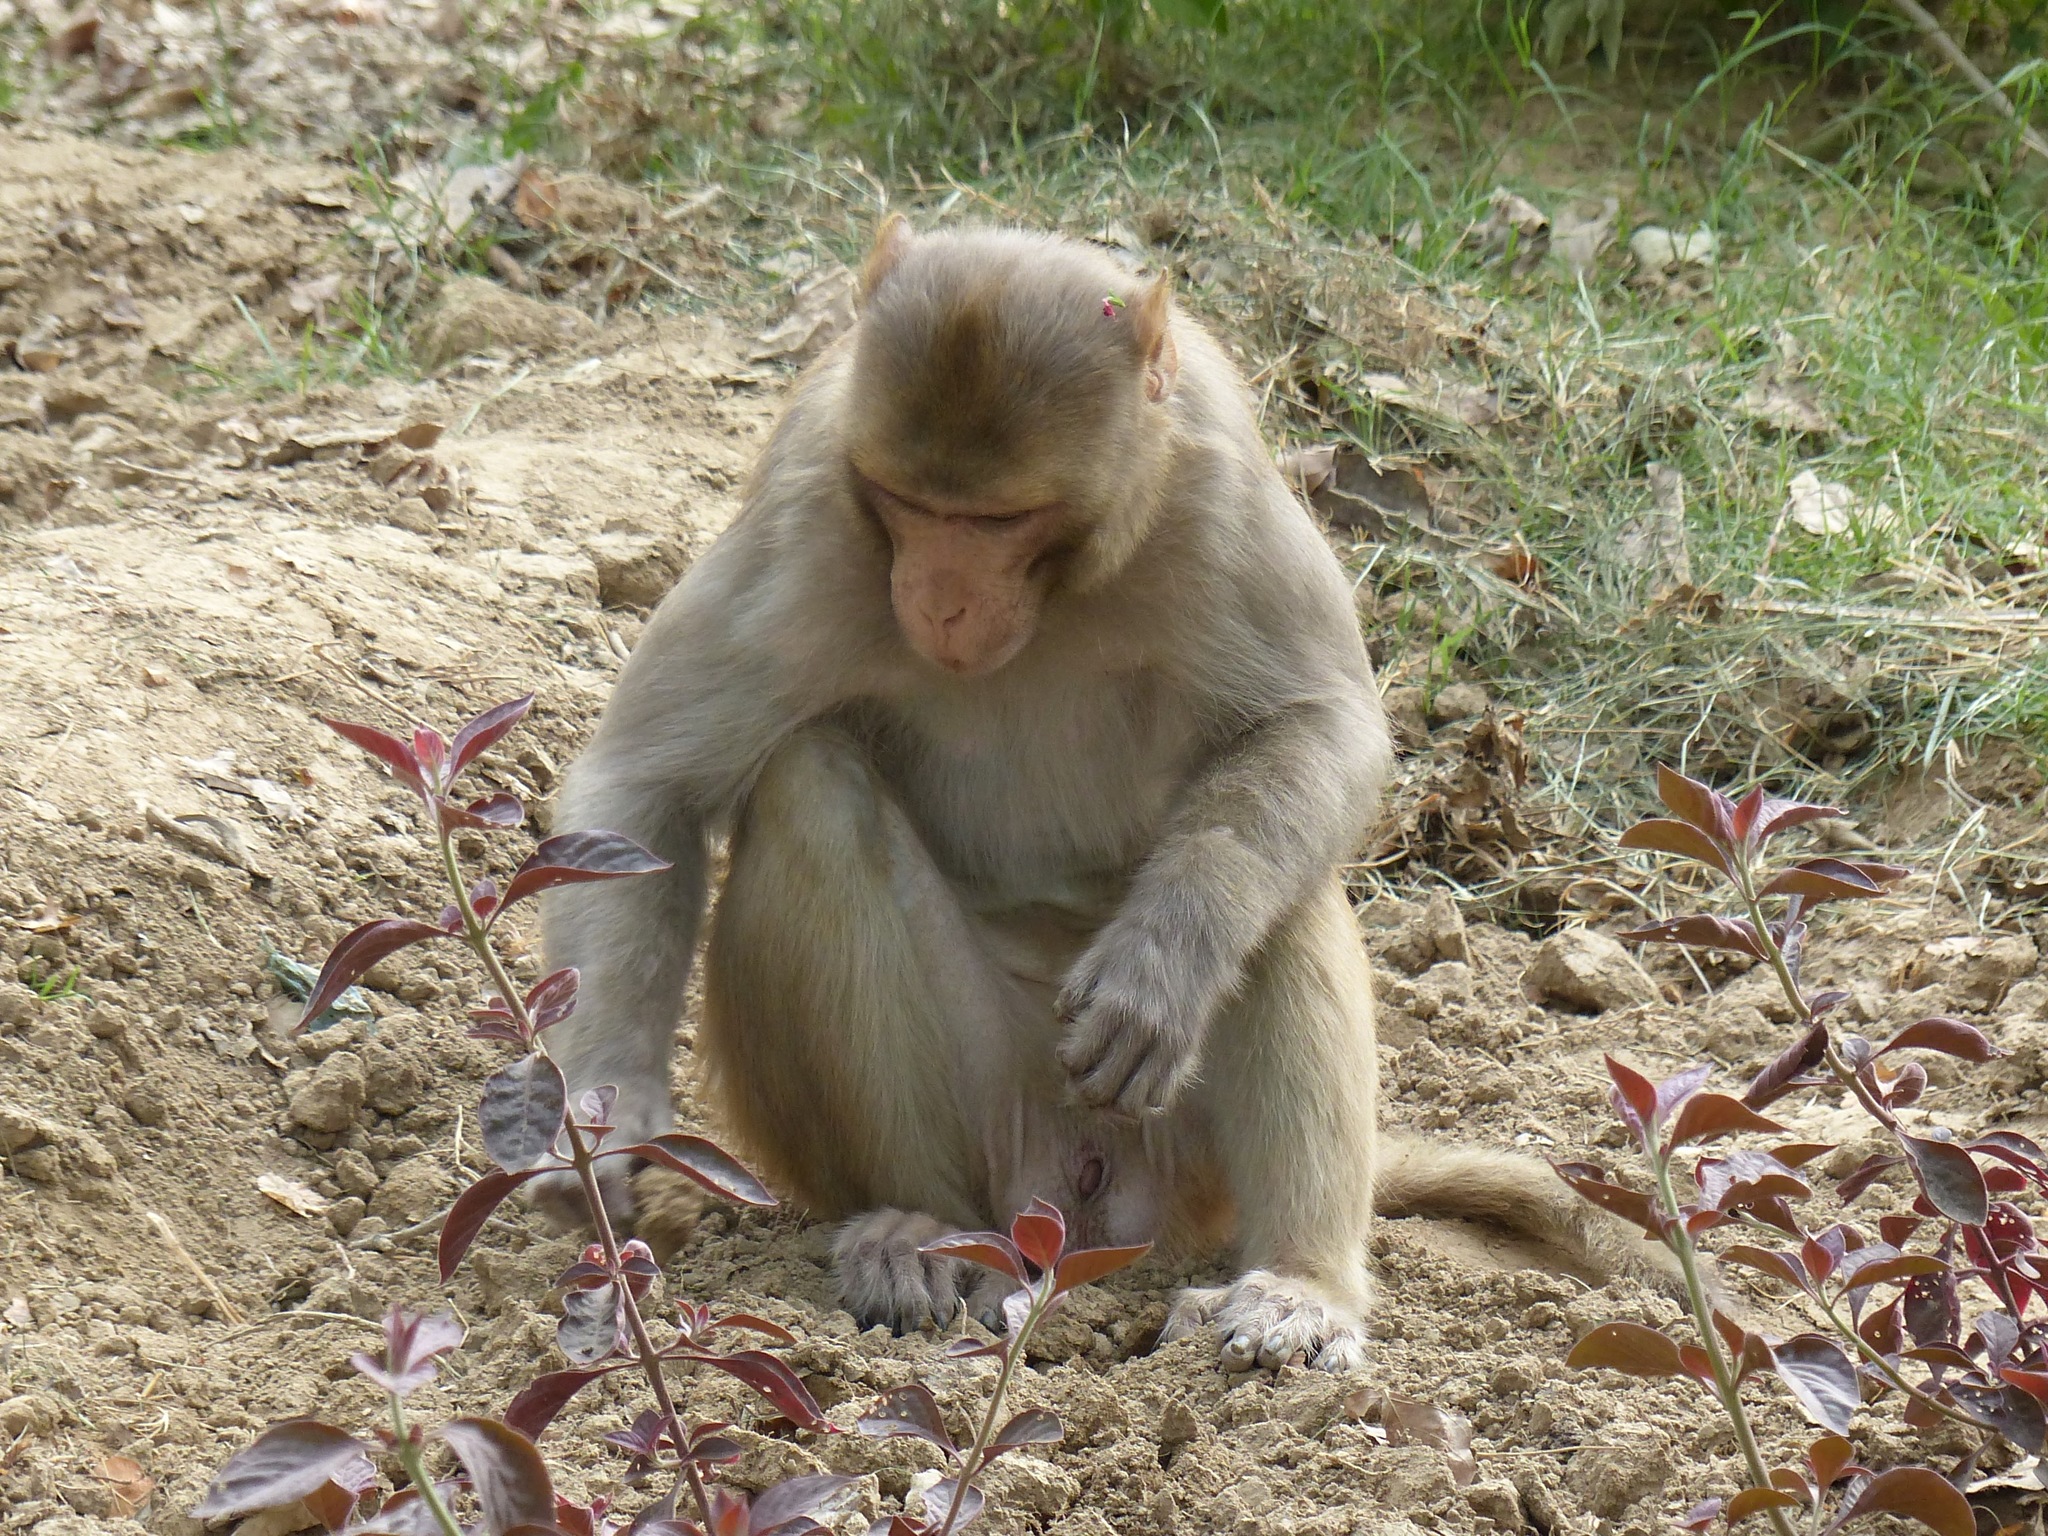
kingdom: Animalia
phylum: Chordata
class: Mammalia
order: Primates
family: Cercopithecidae
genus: Macaca
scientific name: Macaca mulatta
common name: Rhesus monkey
